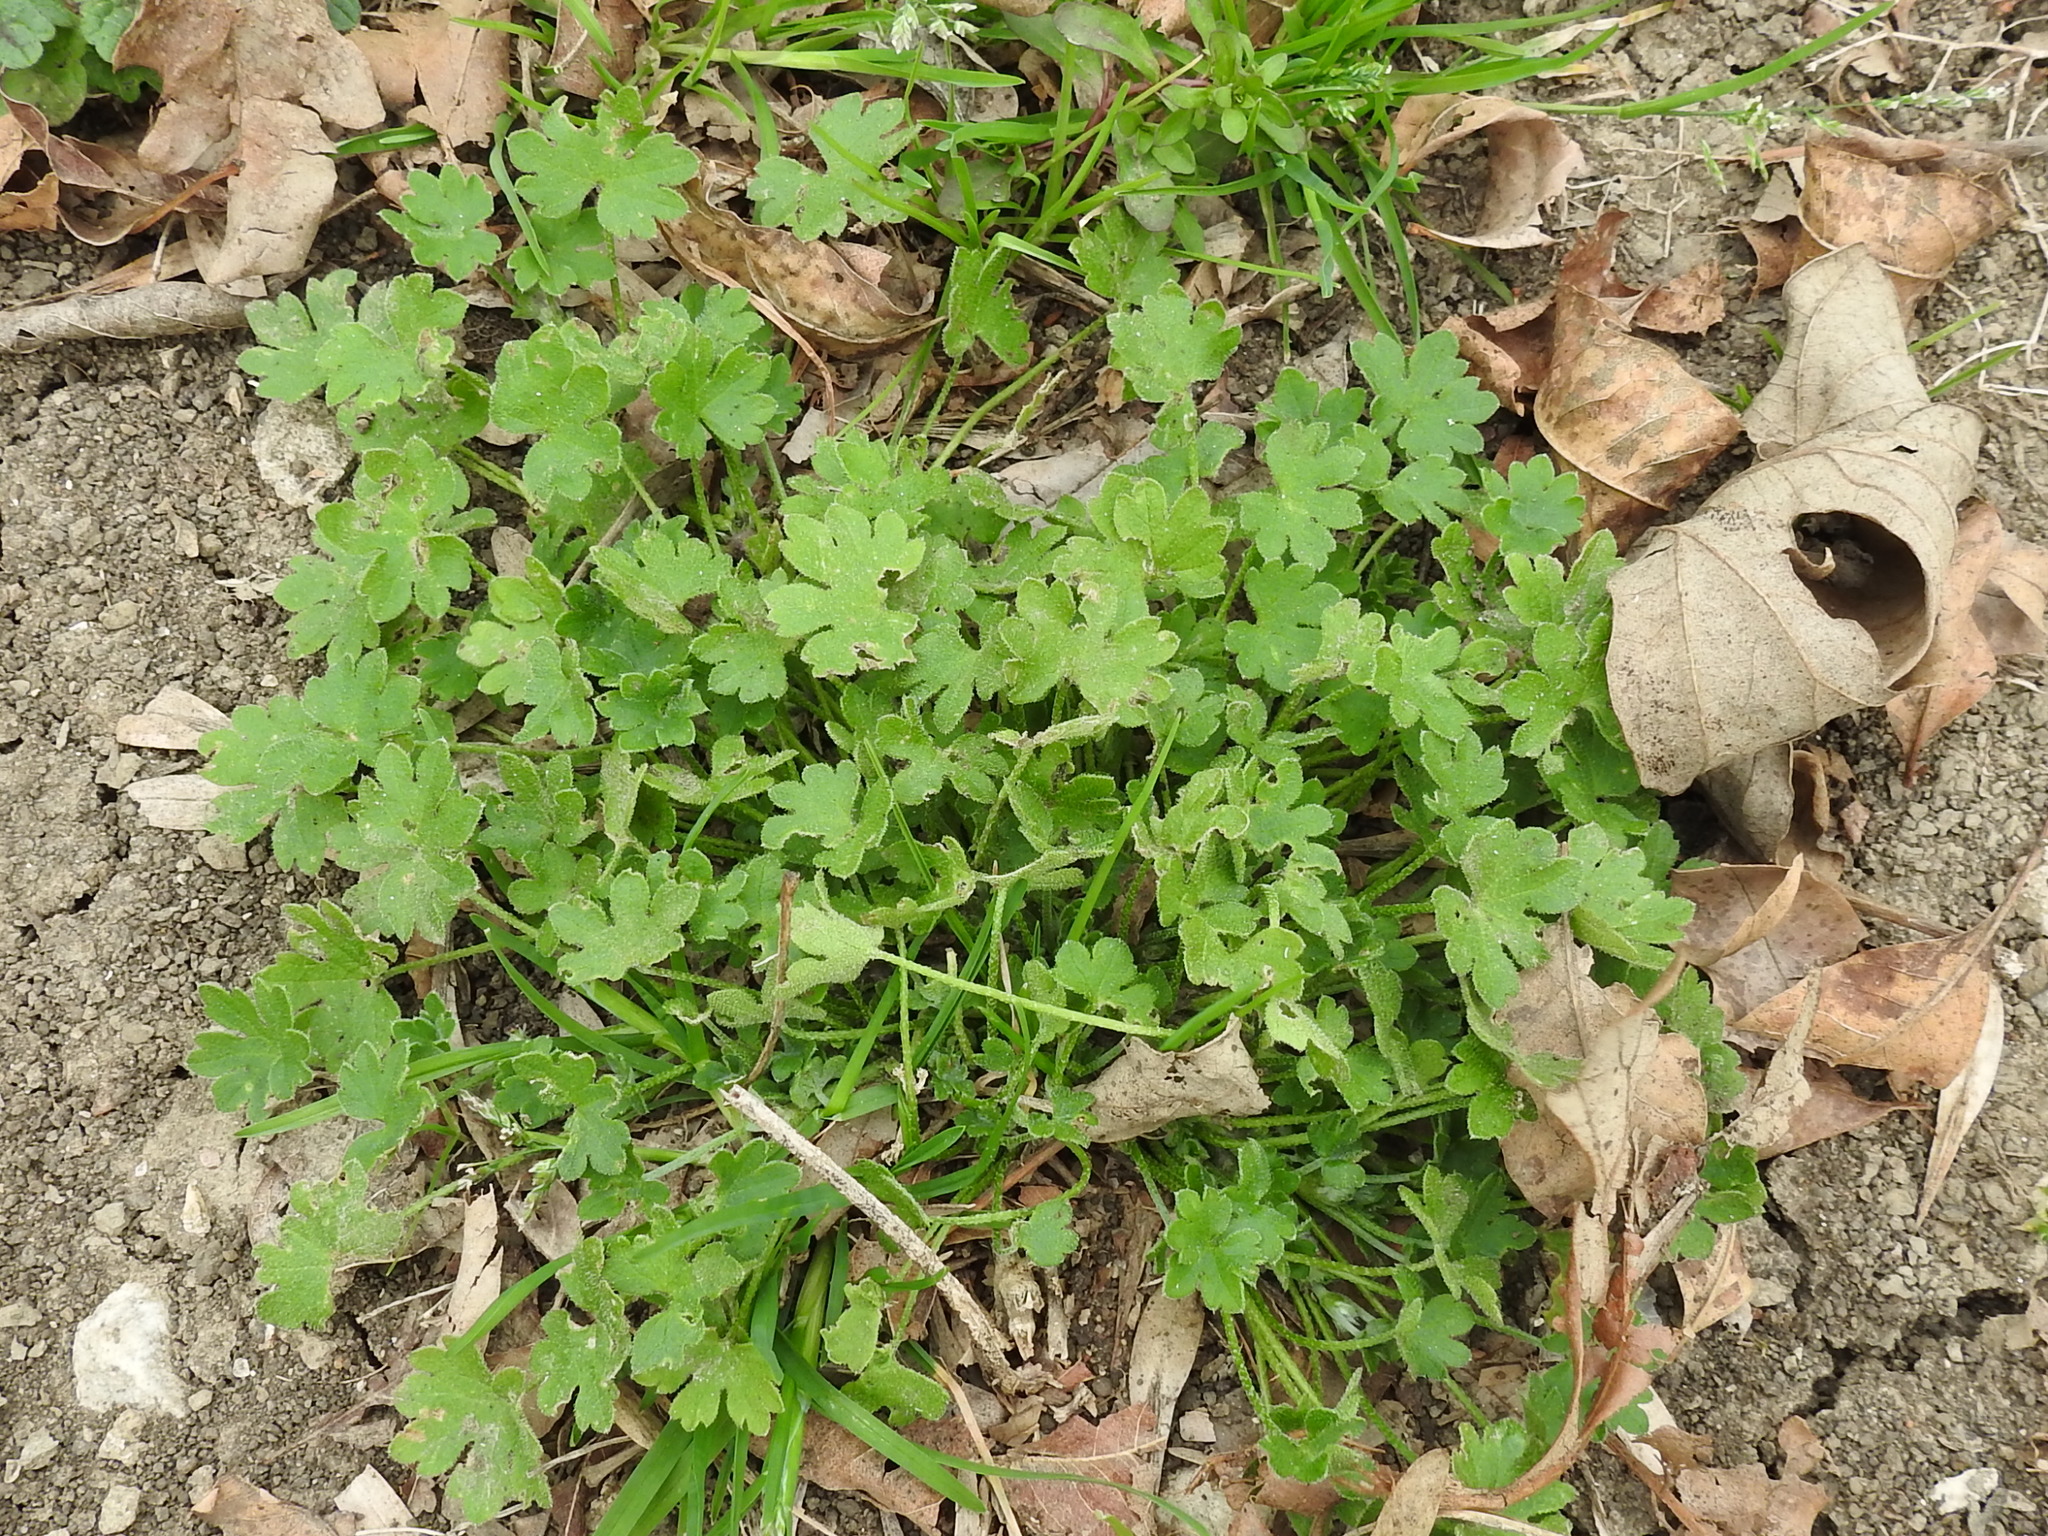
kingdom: Plantae
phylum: Tracheophyta
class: Magnoliopsida
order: Apiales
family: Apiaceae
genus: Bowlesia
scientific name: Bowlesia incana
